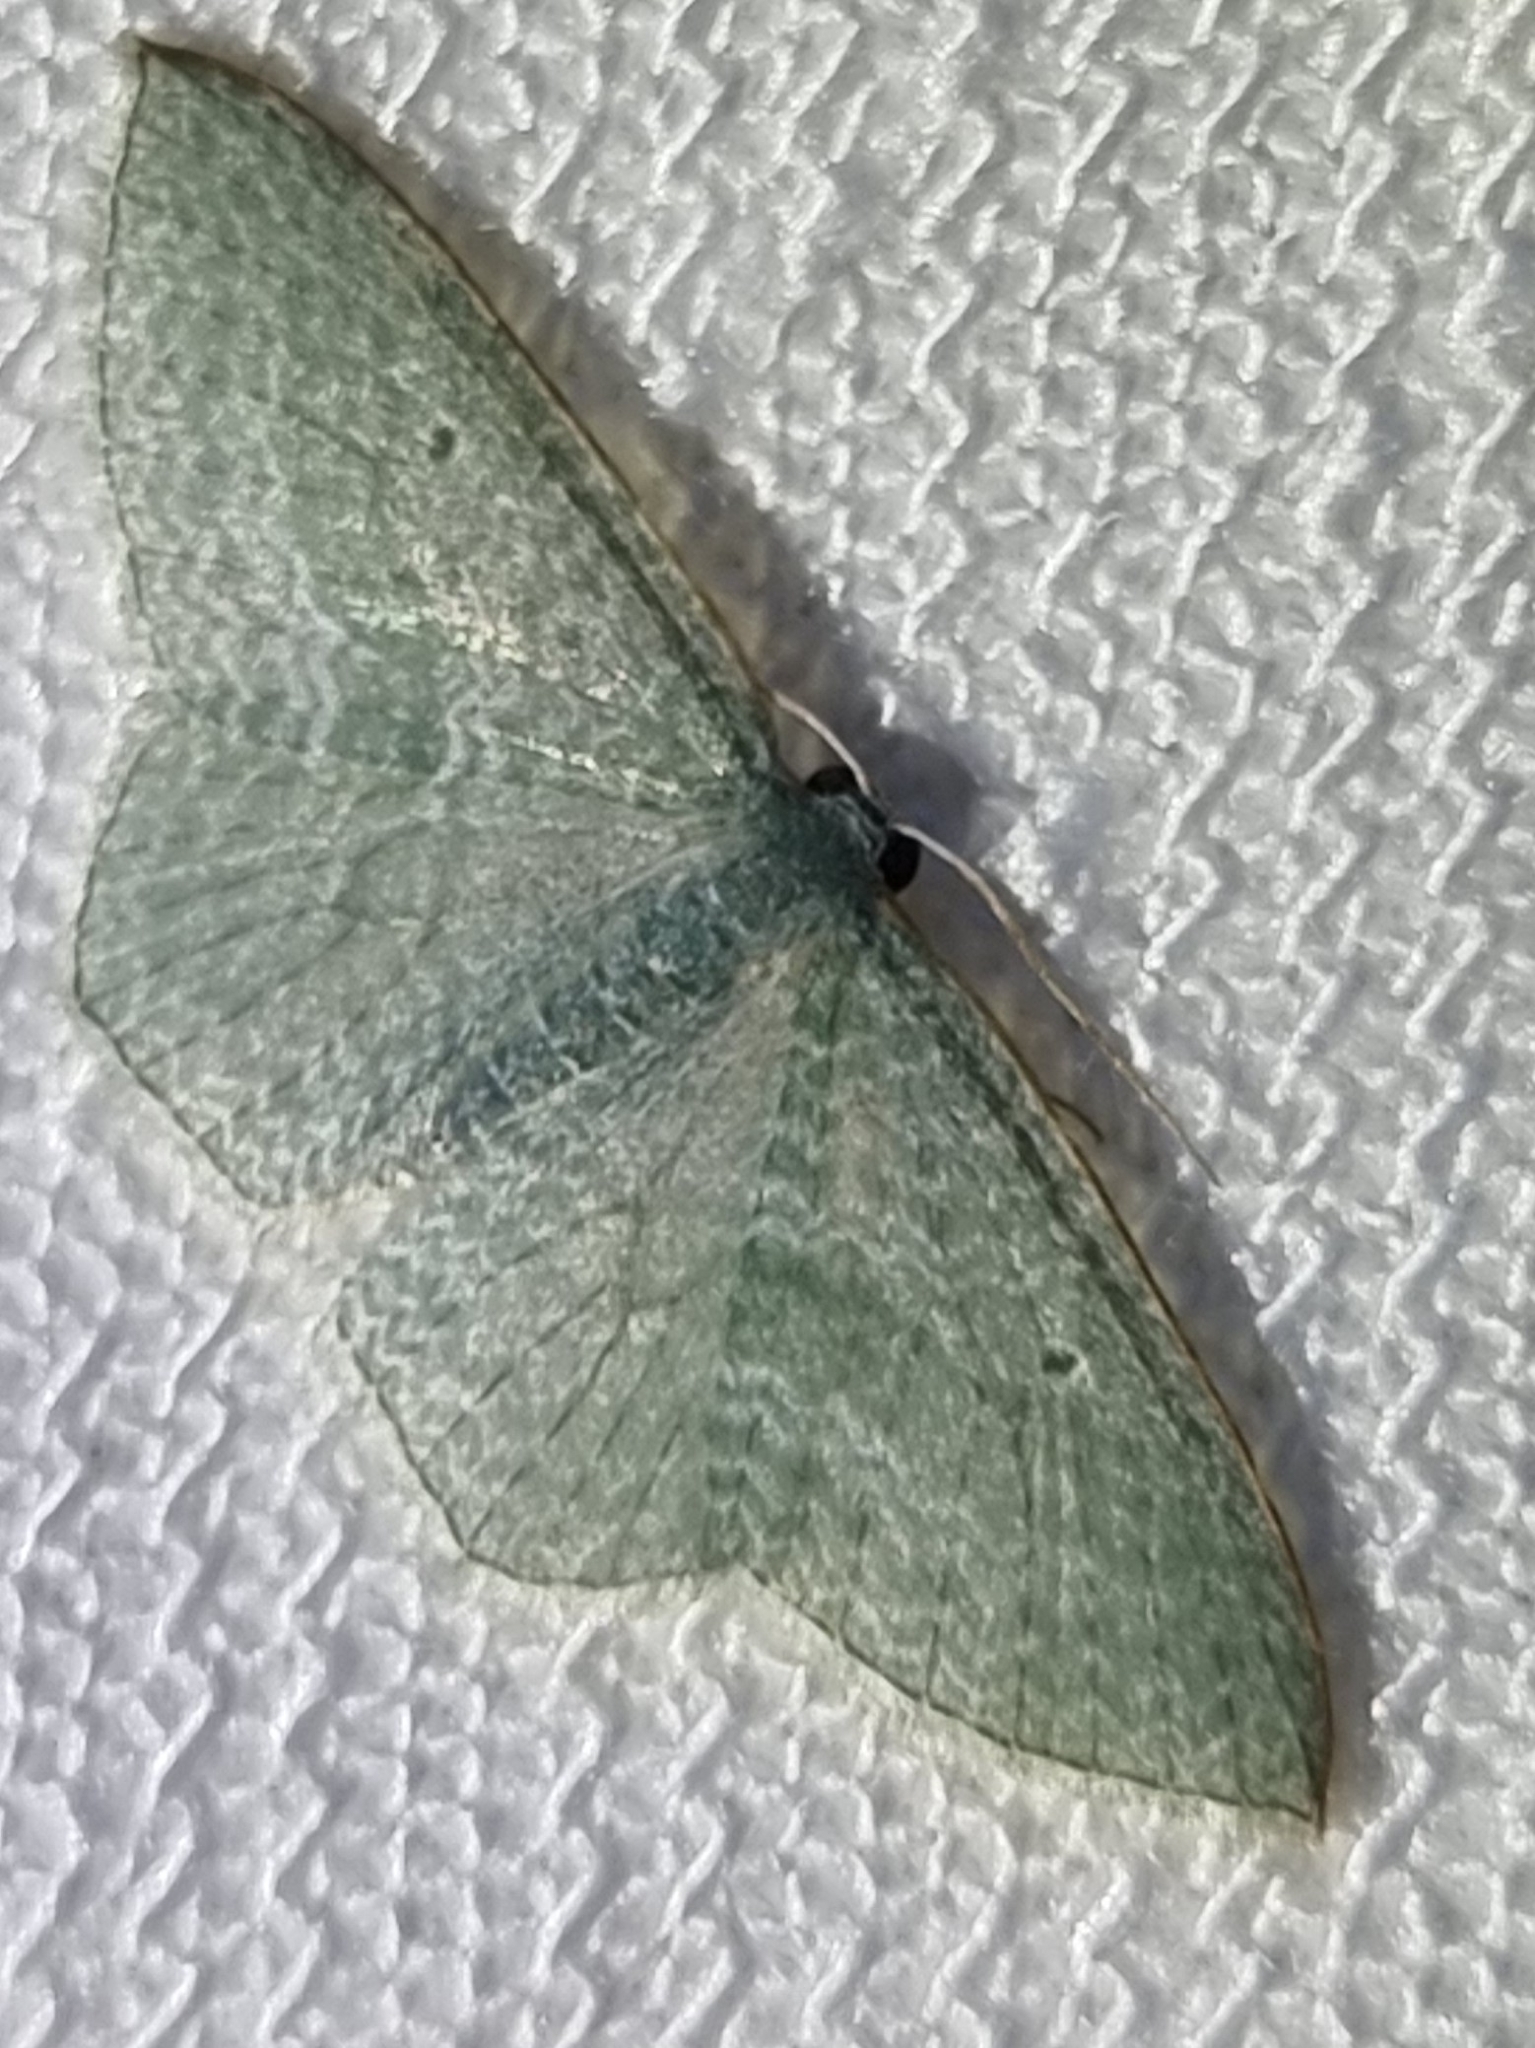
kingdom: Animalia
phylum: Arthropoda
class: Insecta
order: Lepidoptera
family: Geometridae
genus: Poecilasthena
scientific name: Poecilasthena thalassias
